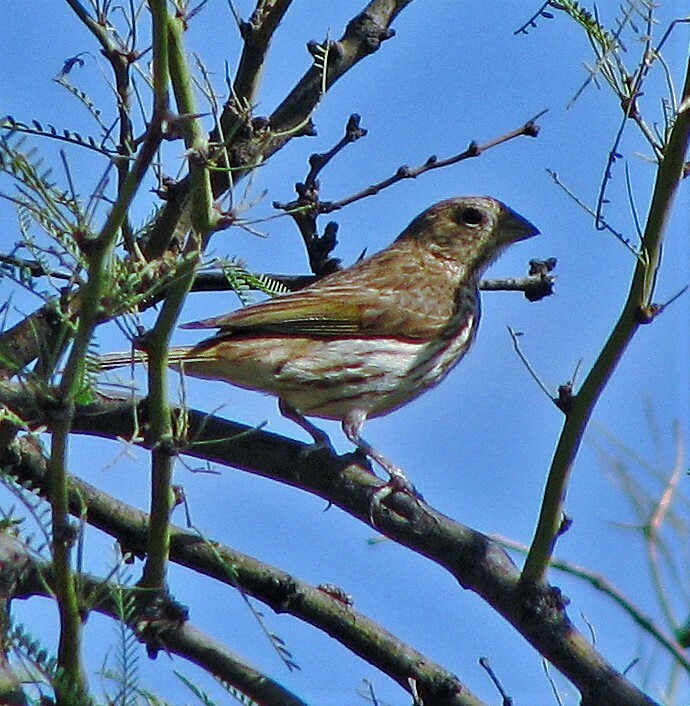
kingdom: Animalia
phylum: Chordata
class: Aves
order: Passeriformes
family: Thraupidae
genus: Sicalis
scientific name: Sicalis flaveola
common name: Saffron finch
